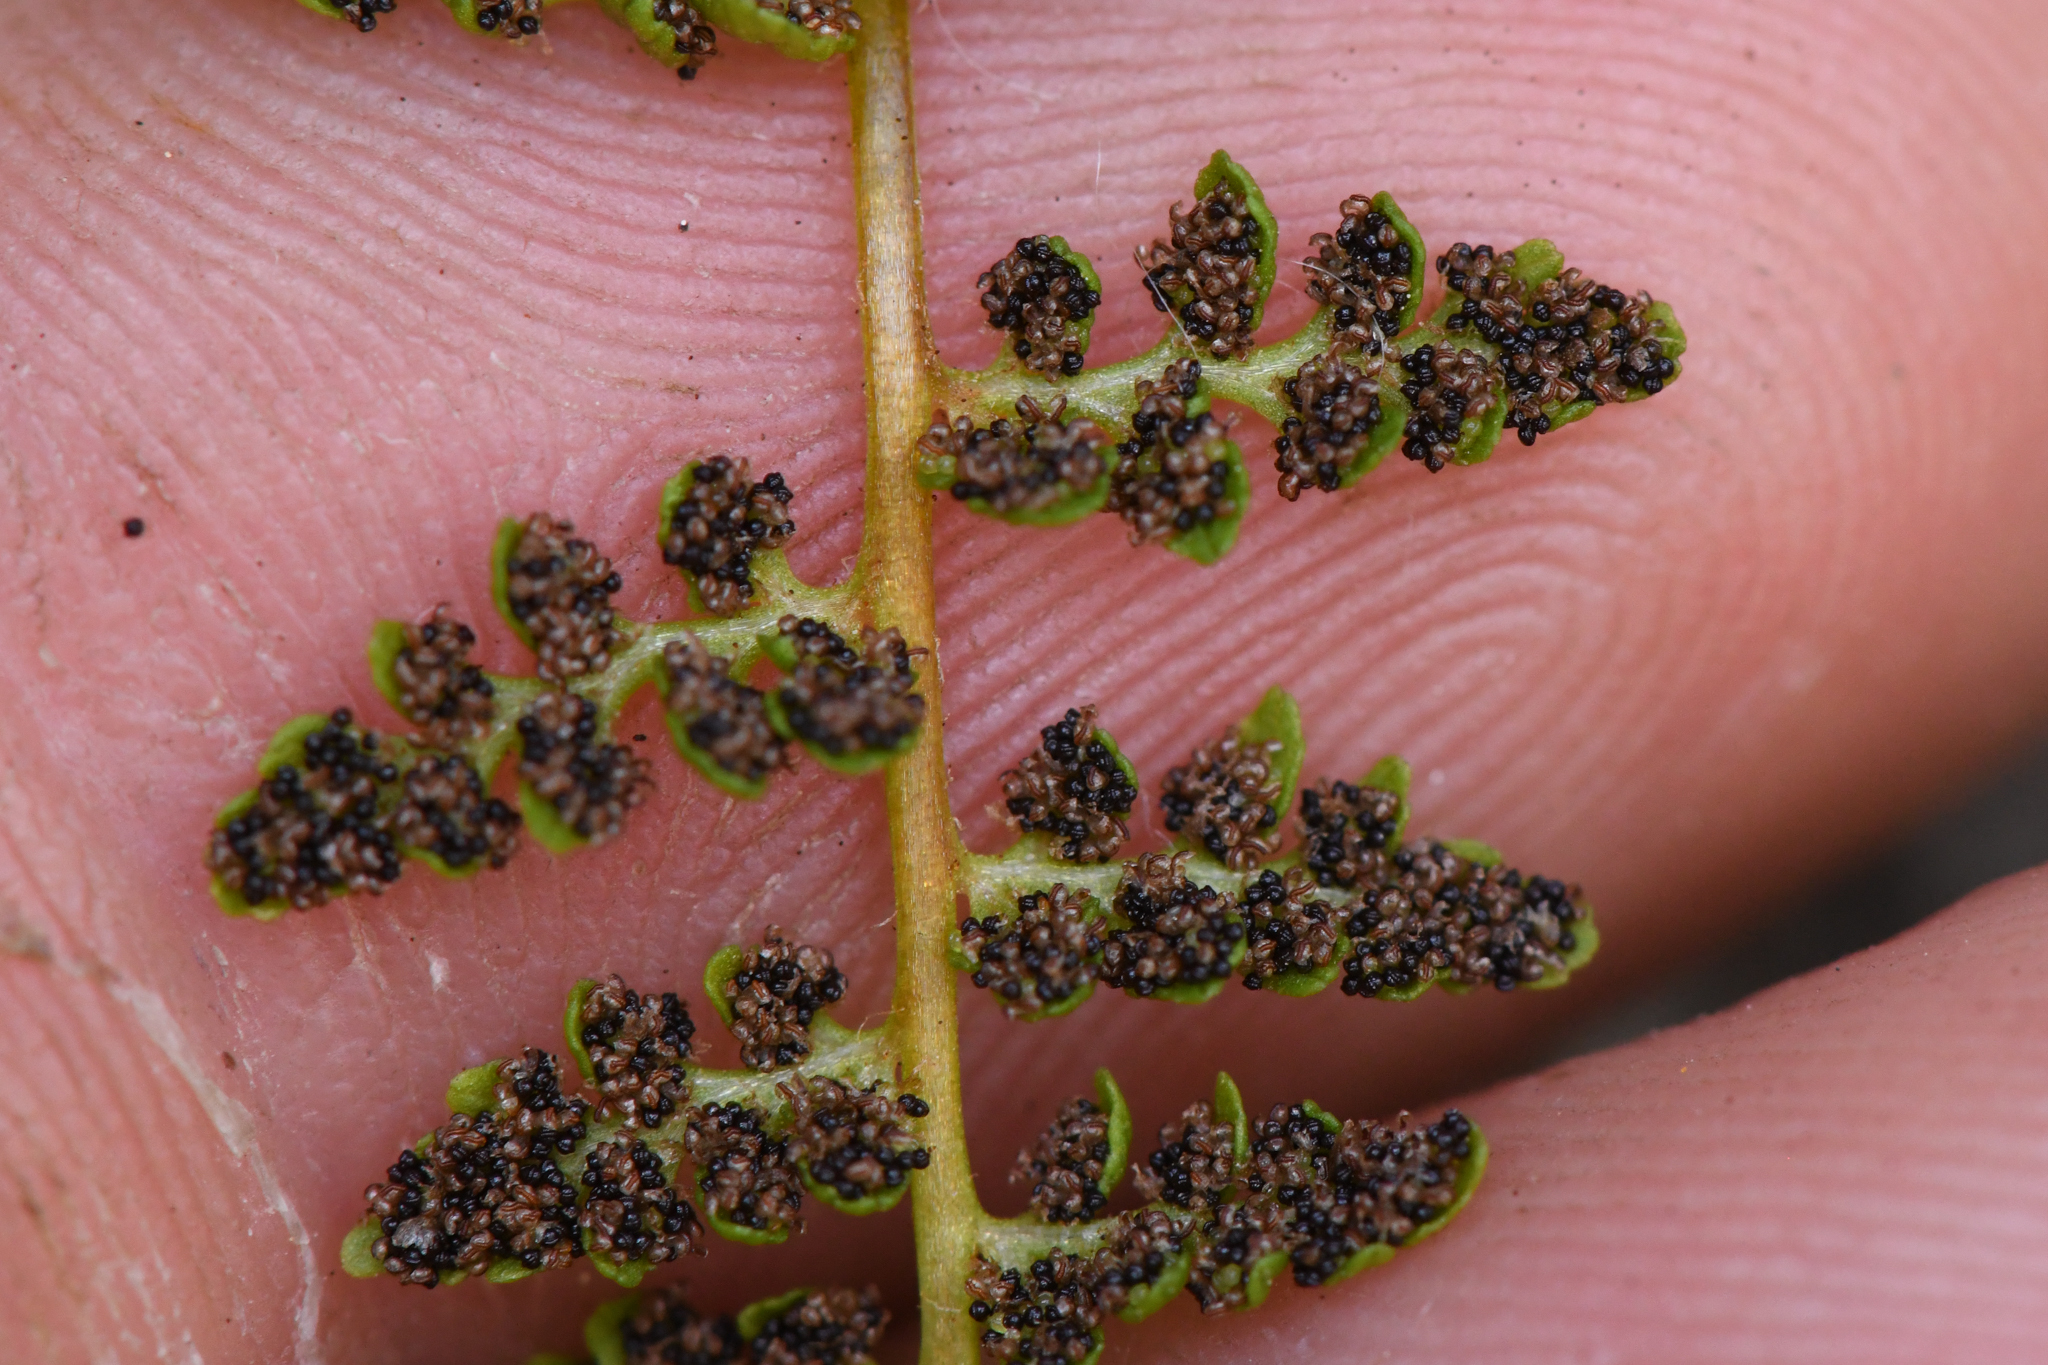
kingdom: Plantae
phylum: Tracheophyta
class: Polypodiopsida
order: Polypodiales
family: Cystopteridaceae
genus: Cystopteris
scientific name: Cystopteris fragilis
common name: Brittle bladder fern
